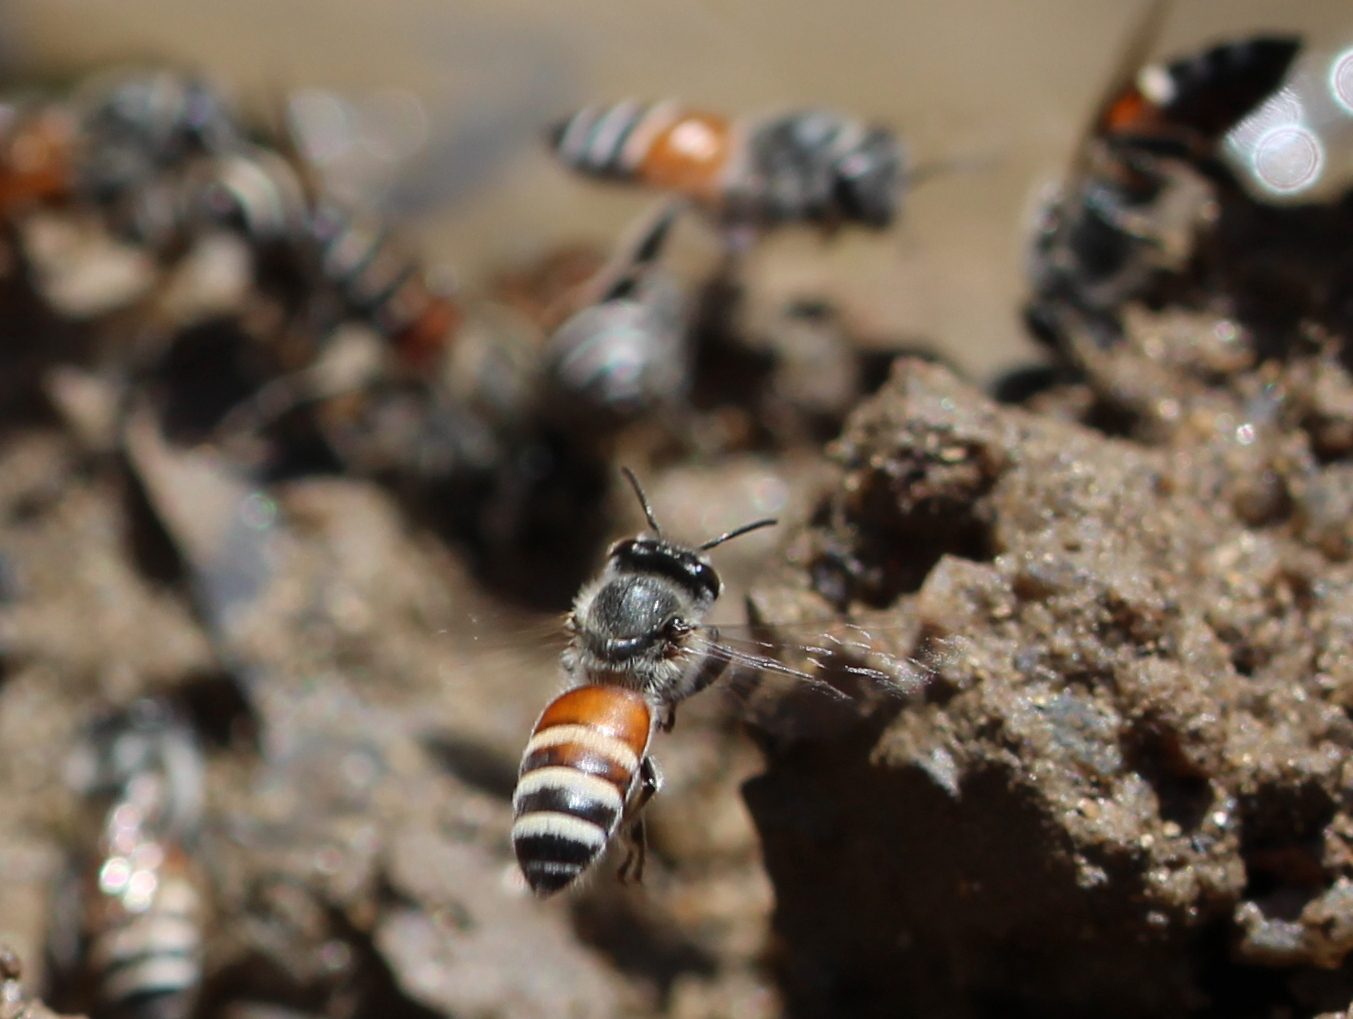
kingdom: Animalia
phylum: Arthropoda
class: Insecta
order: Hymenoptera
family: Apidae
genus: Apis
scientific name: Apis florea
